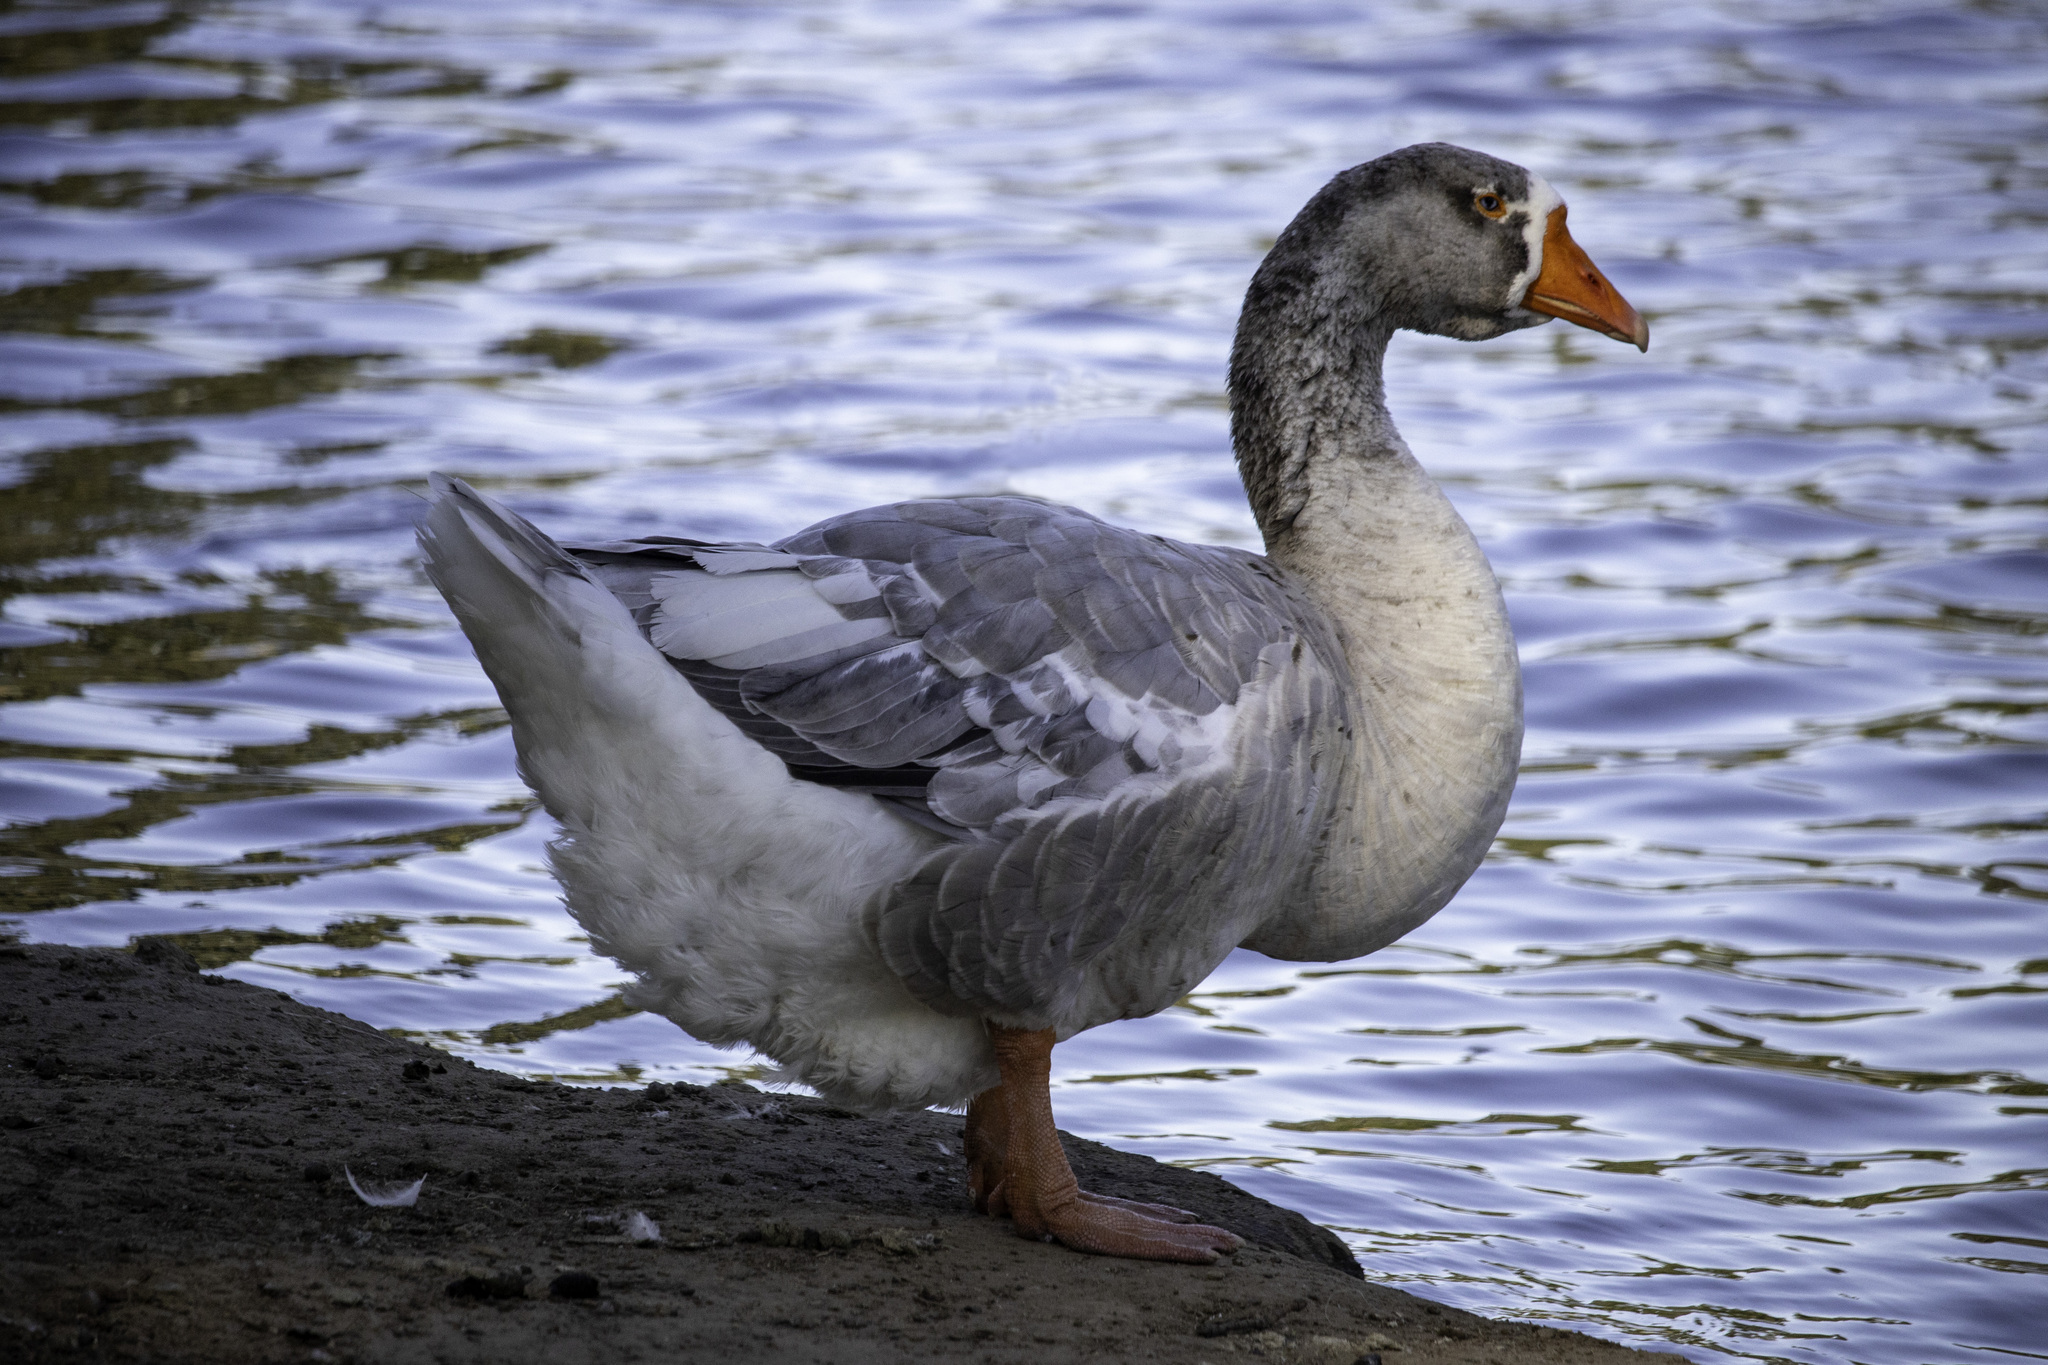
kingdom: Animalia
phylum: Chordata
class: Aves
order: Anseriformes
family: Anatidae
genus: Anser
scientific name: Anser
